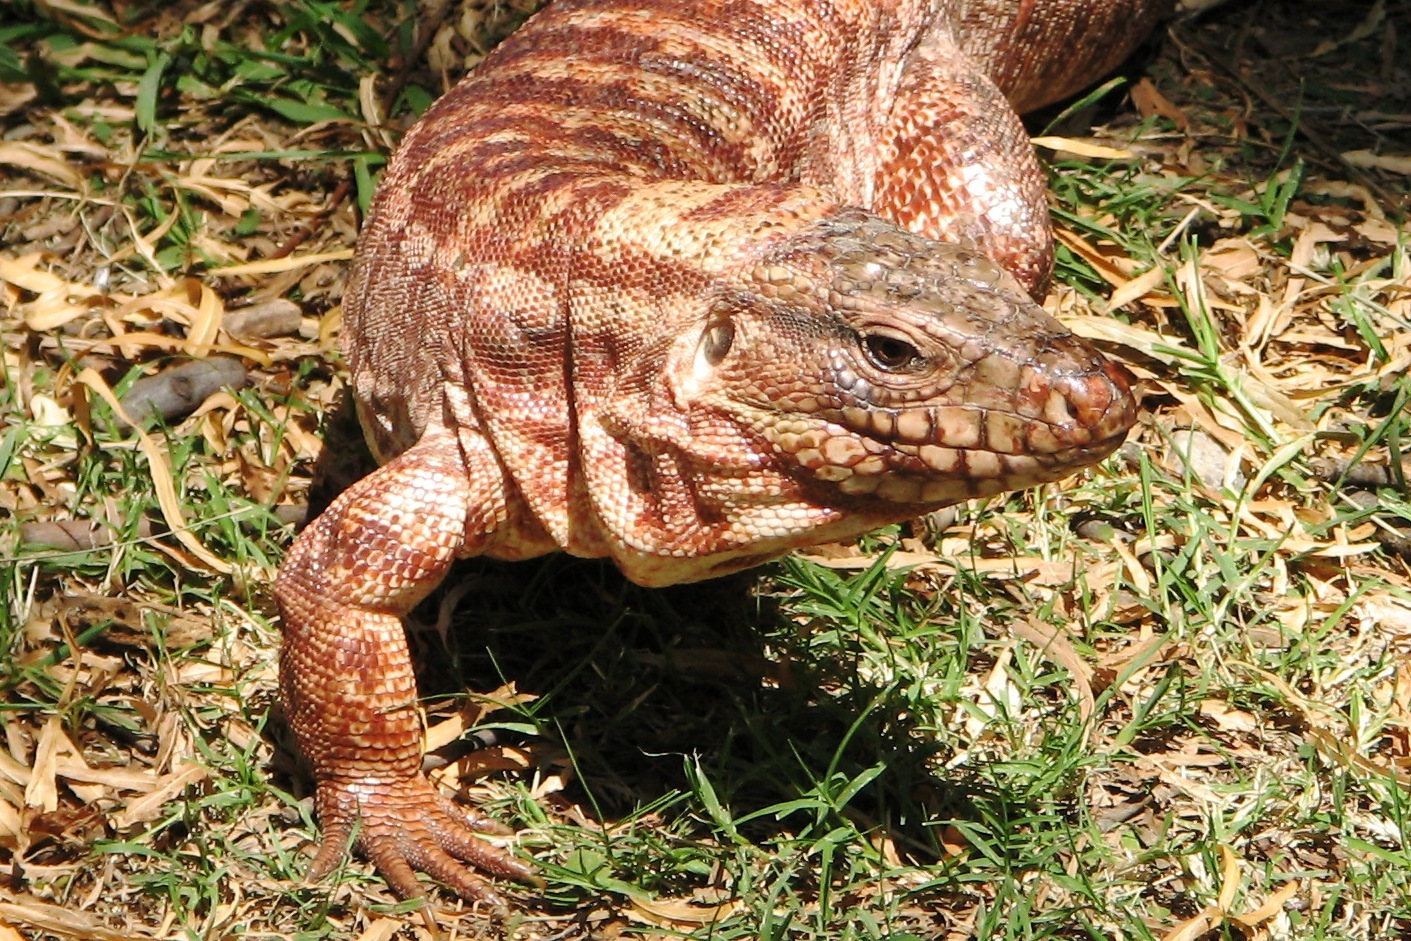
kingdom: Animalia
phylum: Chordata
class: Squamata
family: Teiidae
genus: Salvator
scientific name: Salvator rufescens
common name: Red tegu
